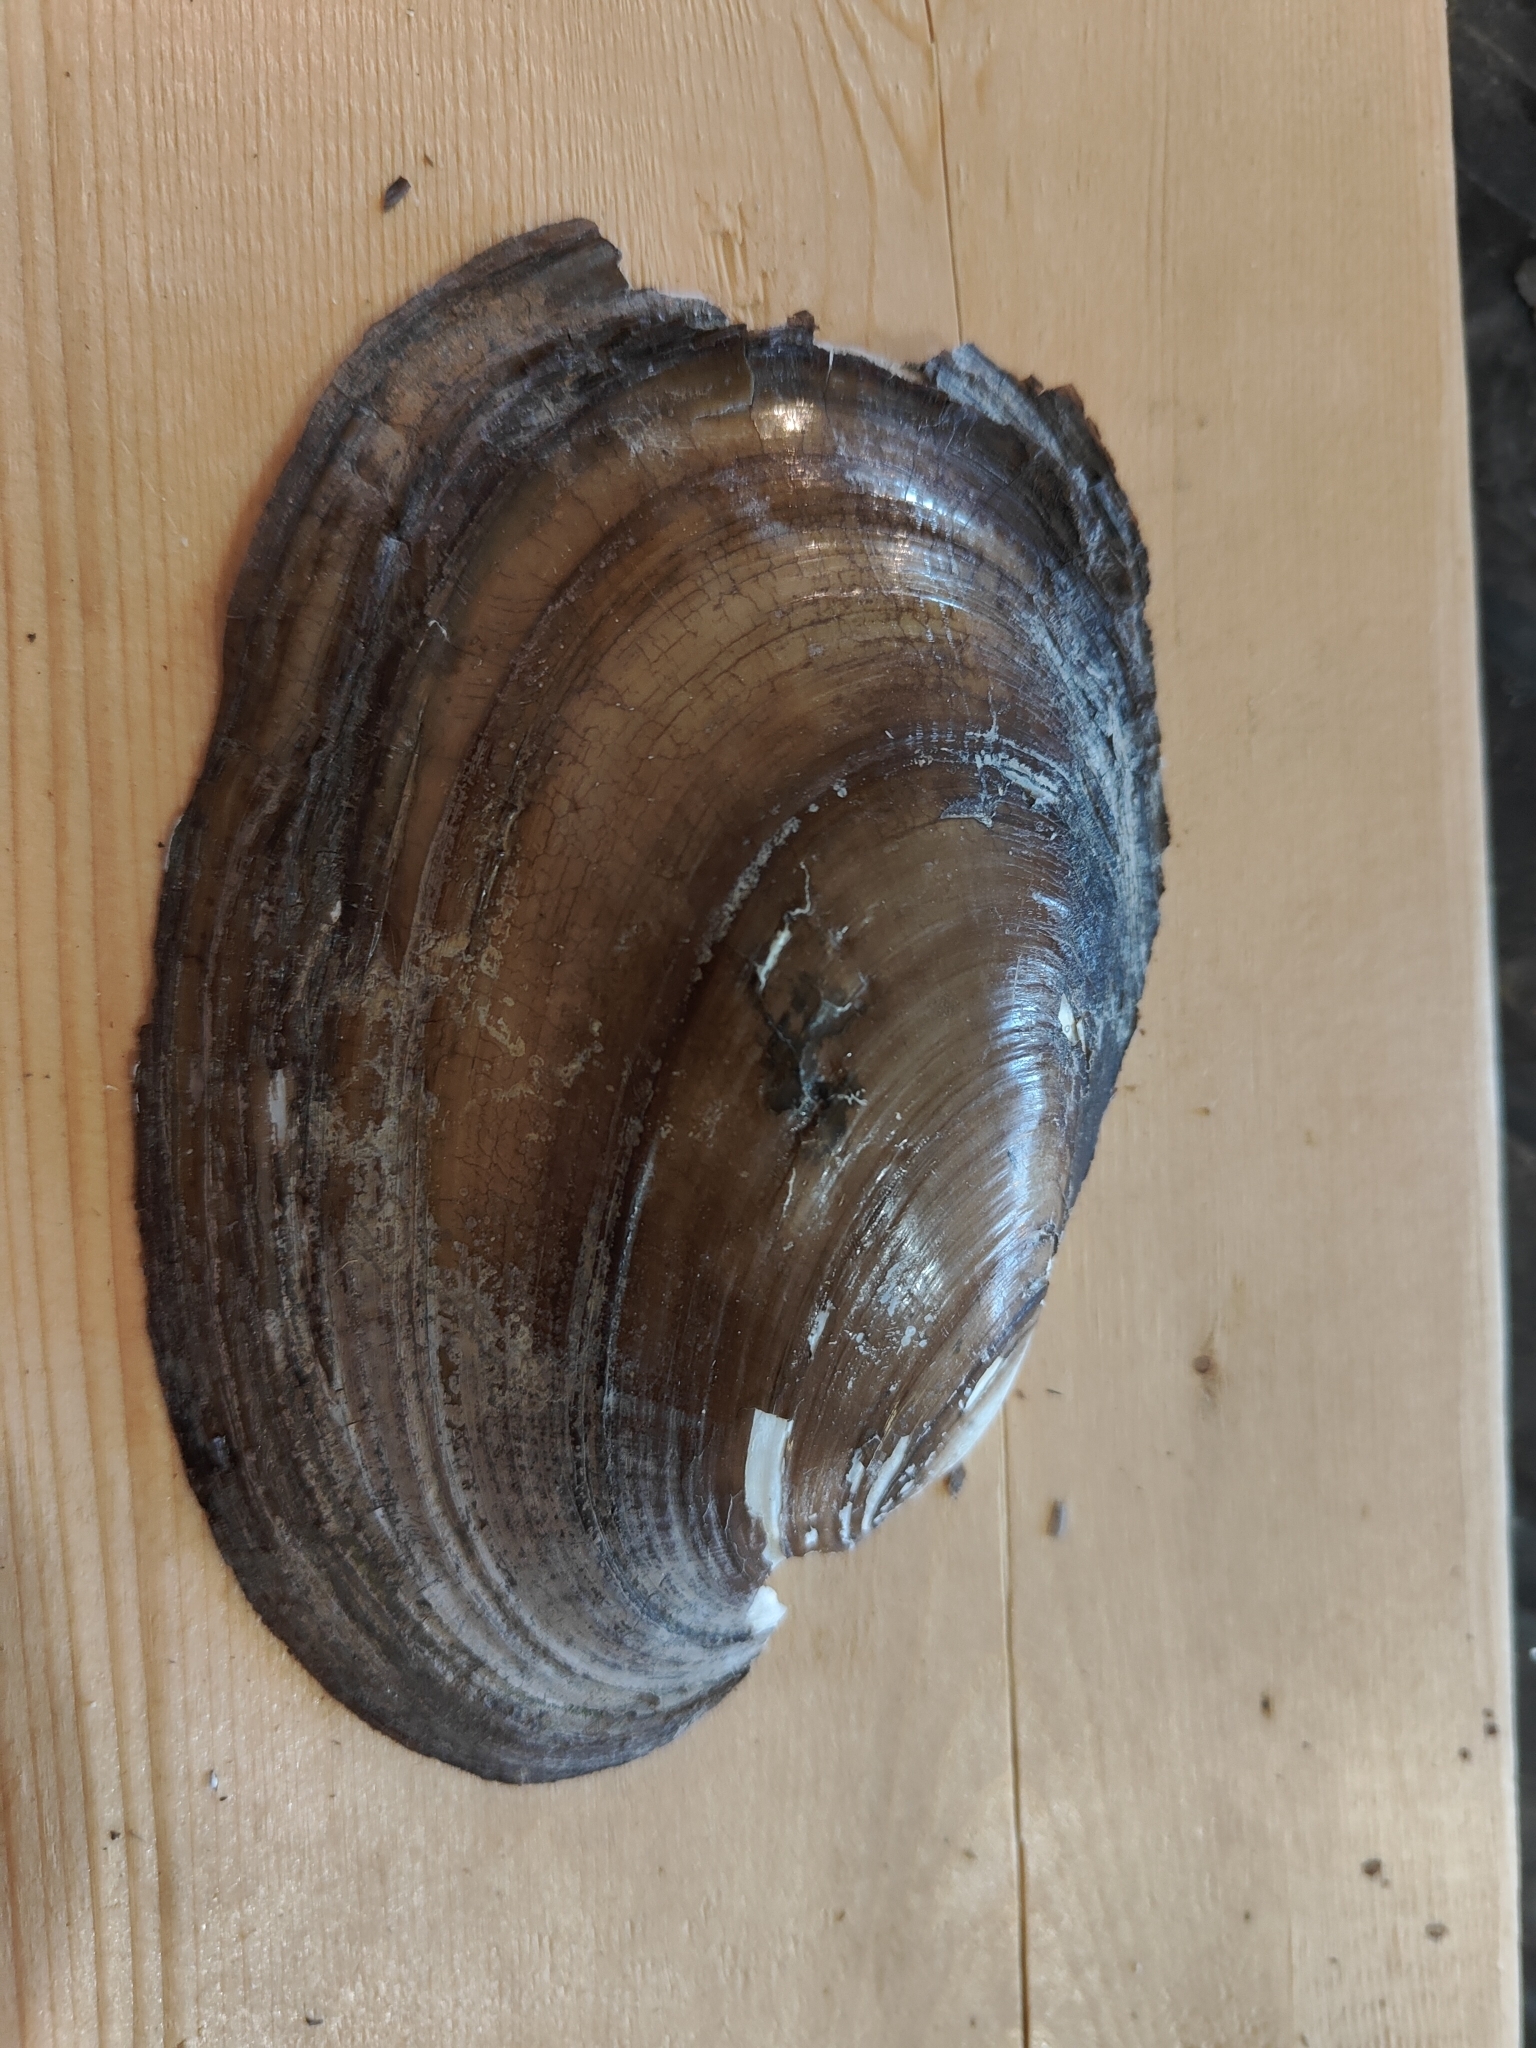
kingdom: Animalia
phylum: Mollusca
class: Bivalvia
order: Unionida
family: Unionidae
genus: Potamilus
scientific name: Potamilus fragilis
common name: Fragile papershell
